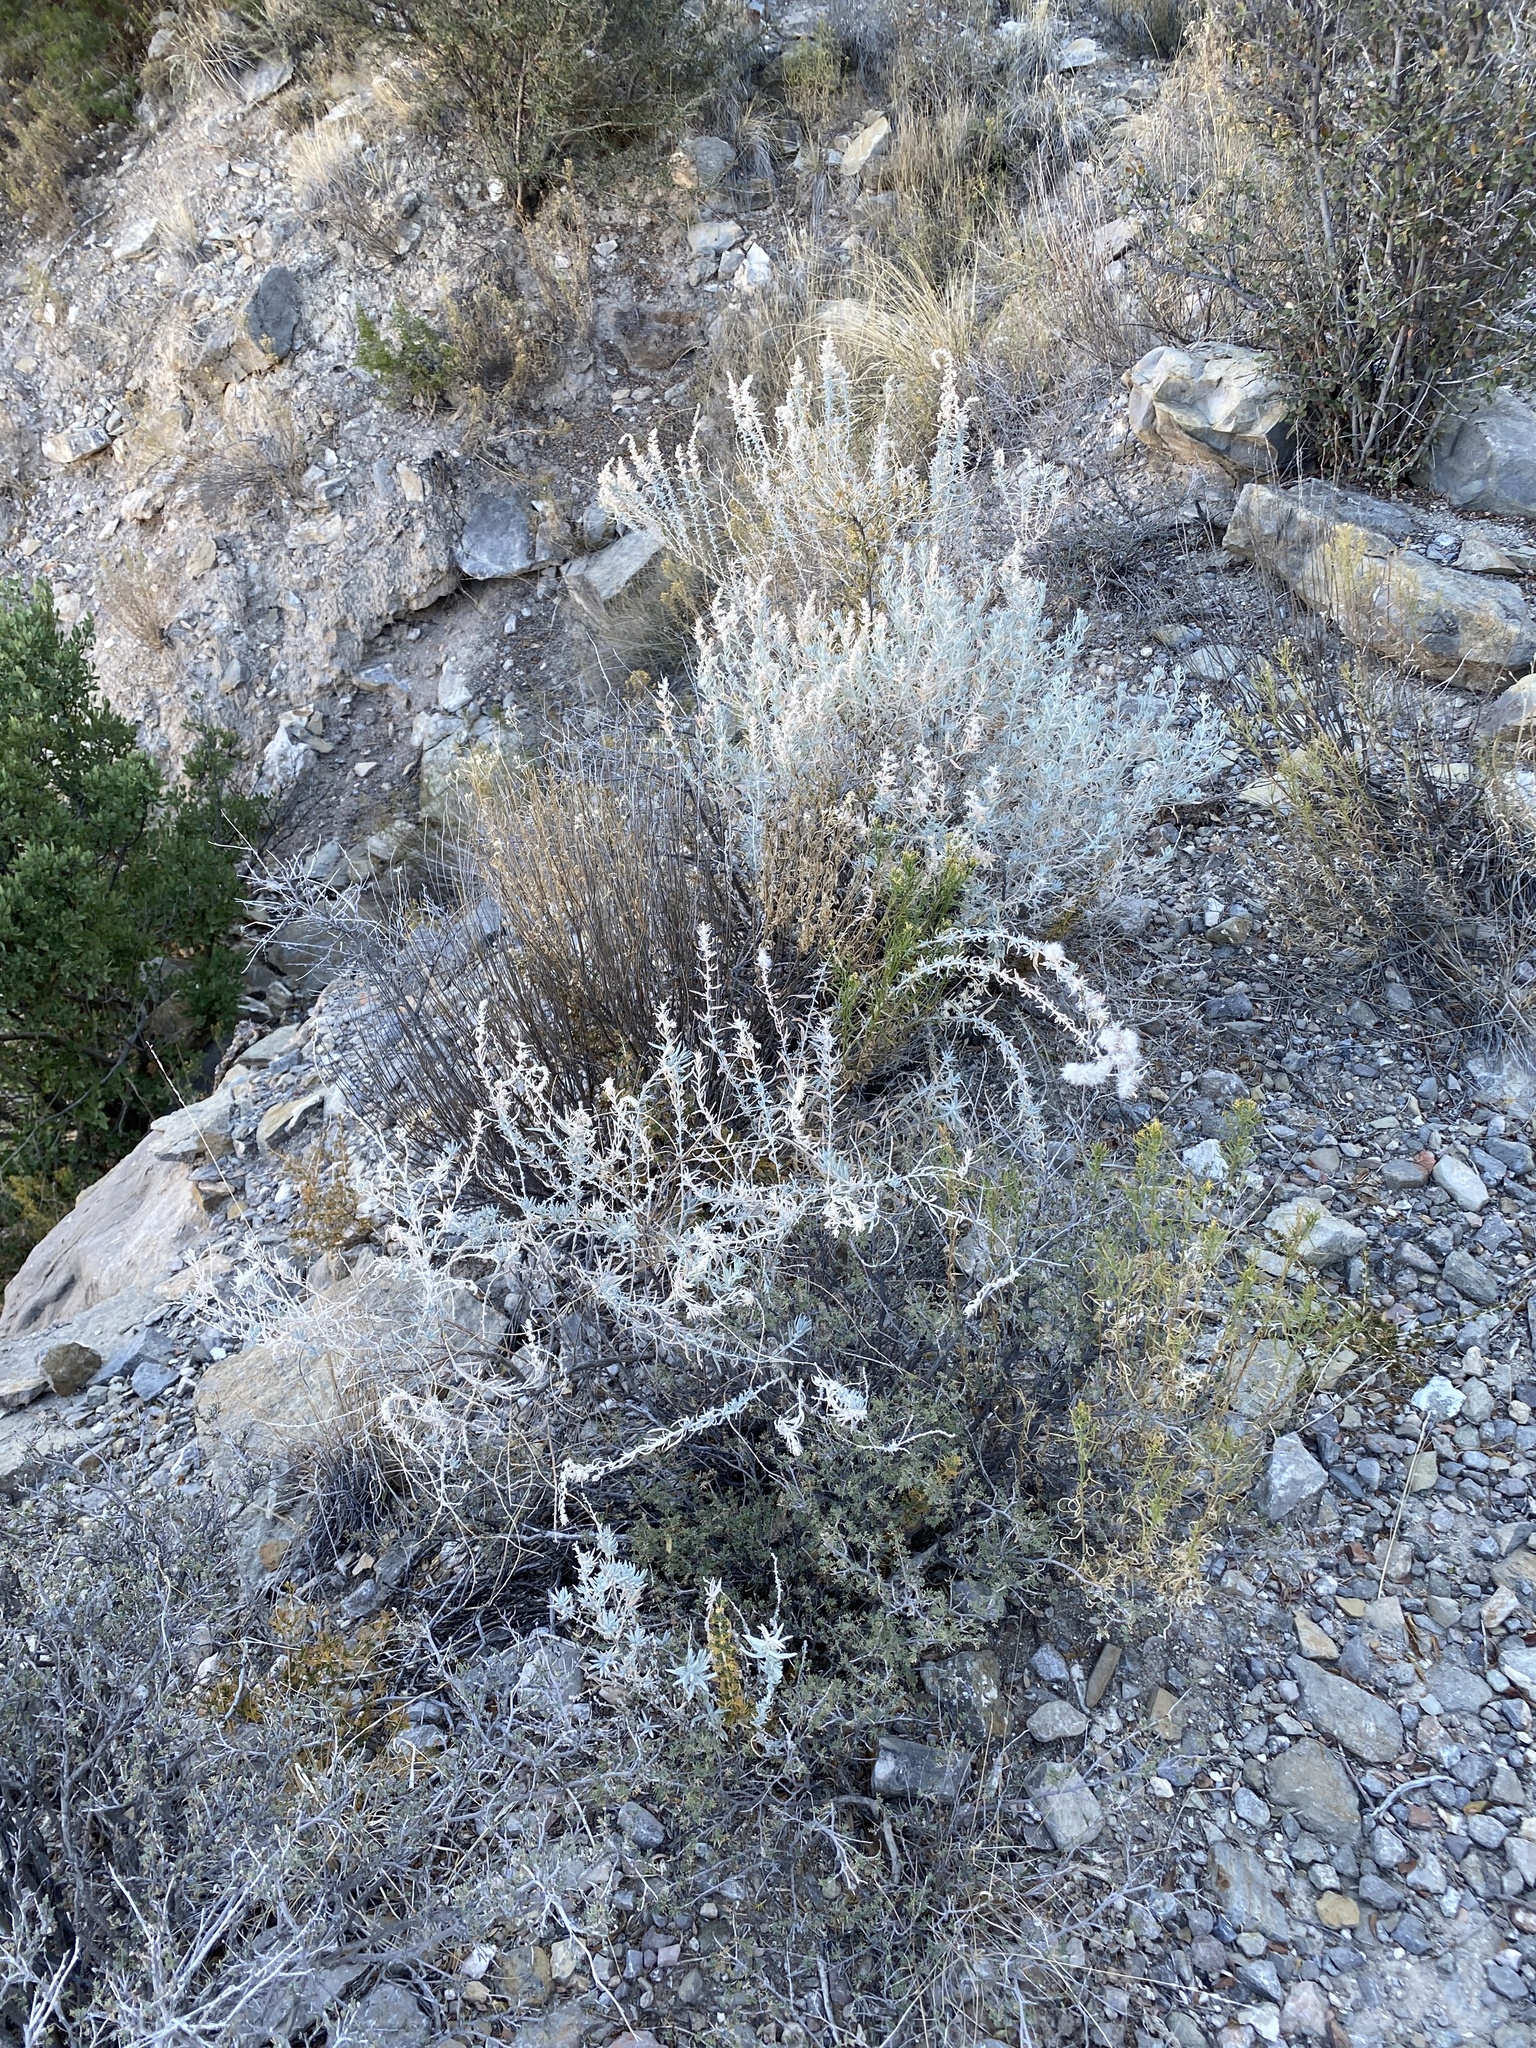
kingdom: Plantae
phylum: Tracheophyta
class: Magnoliopsida
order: Caryophyllales
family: Amaranthaceae
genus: Krascheninnikovia
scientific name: Krascheninnikovia lanata
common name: Winterfat
